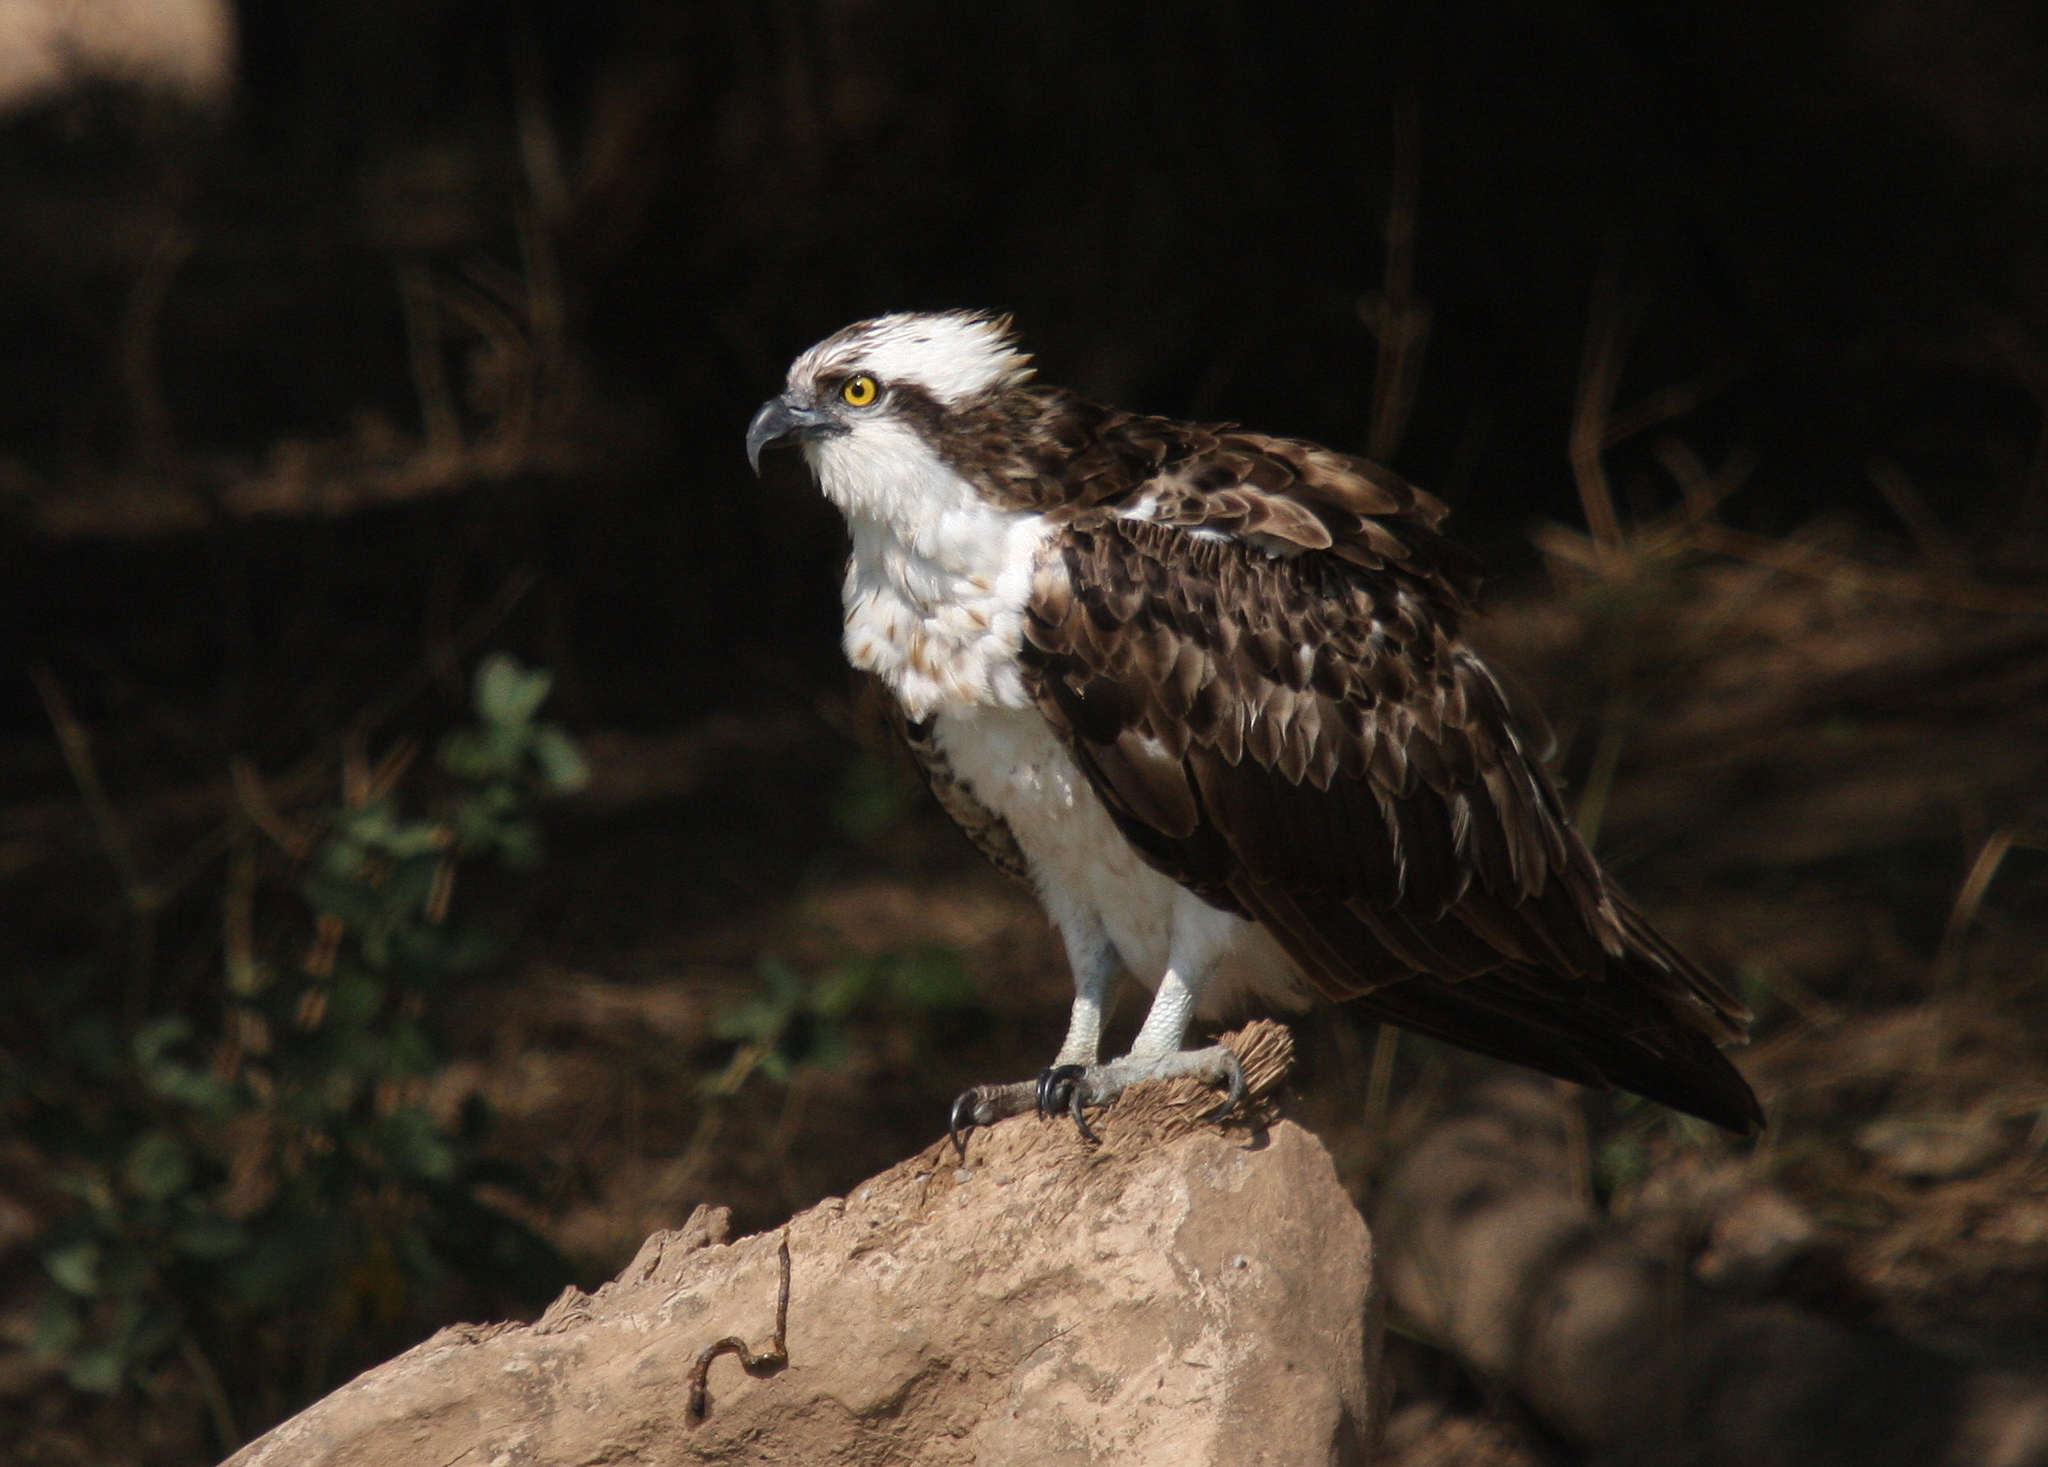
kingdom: Animalia
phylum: Chordata
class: Aves
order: Accipitriformes
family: Pandionidae
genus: Pandion
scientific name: Pandion haliaetus
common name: Osprey
